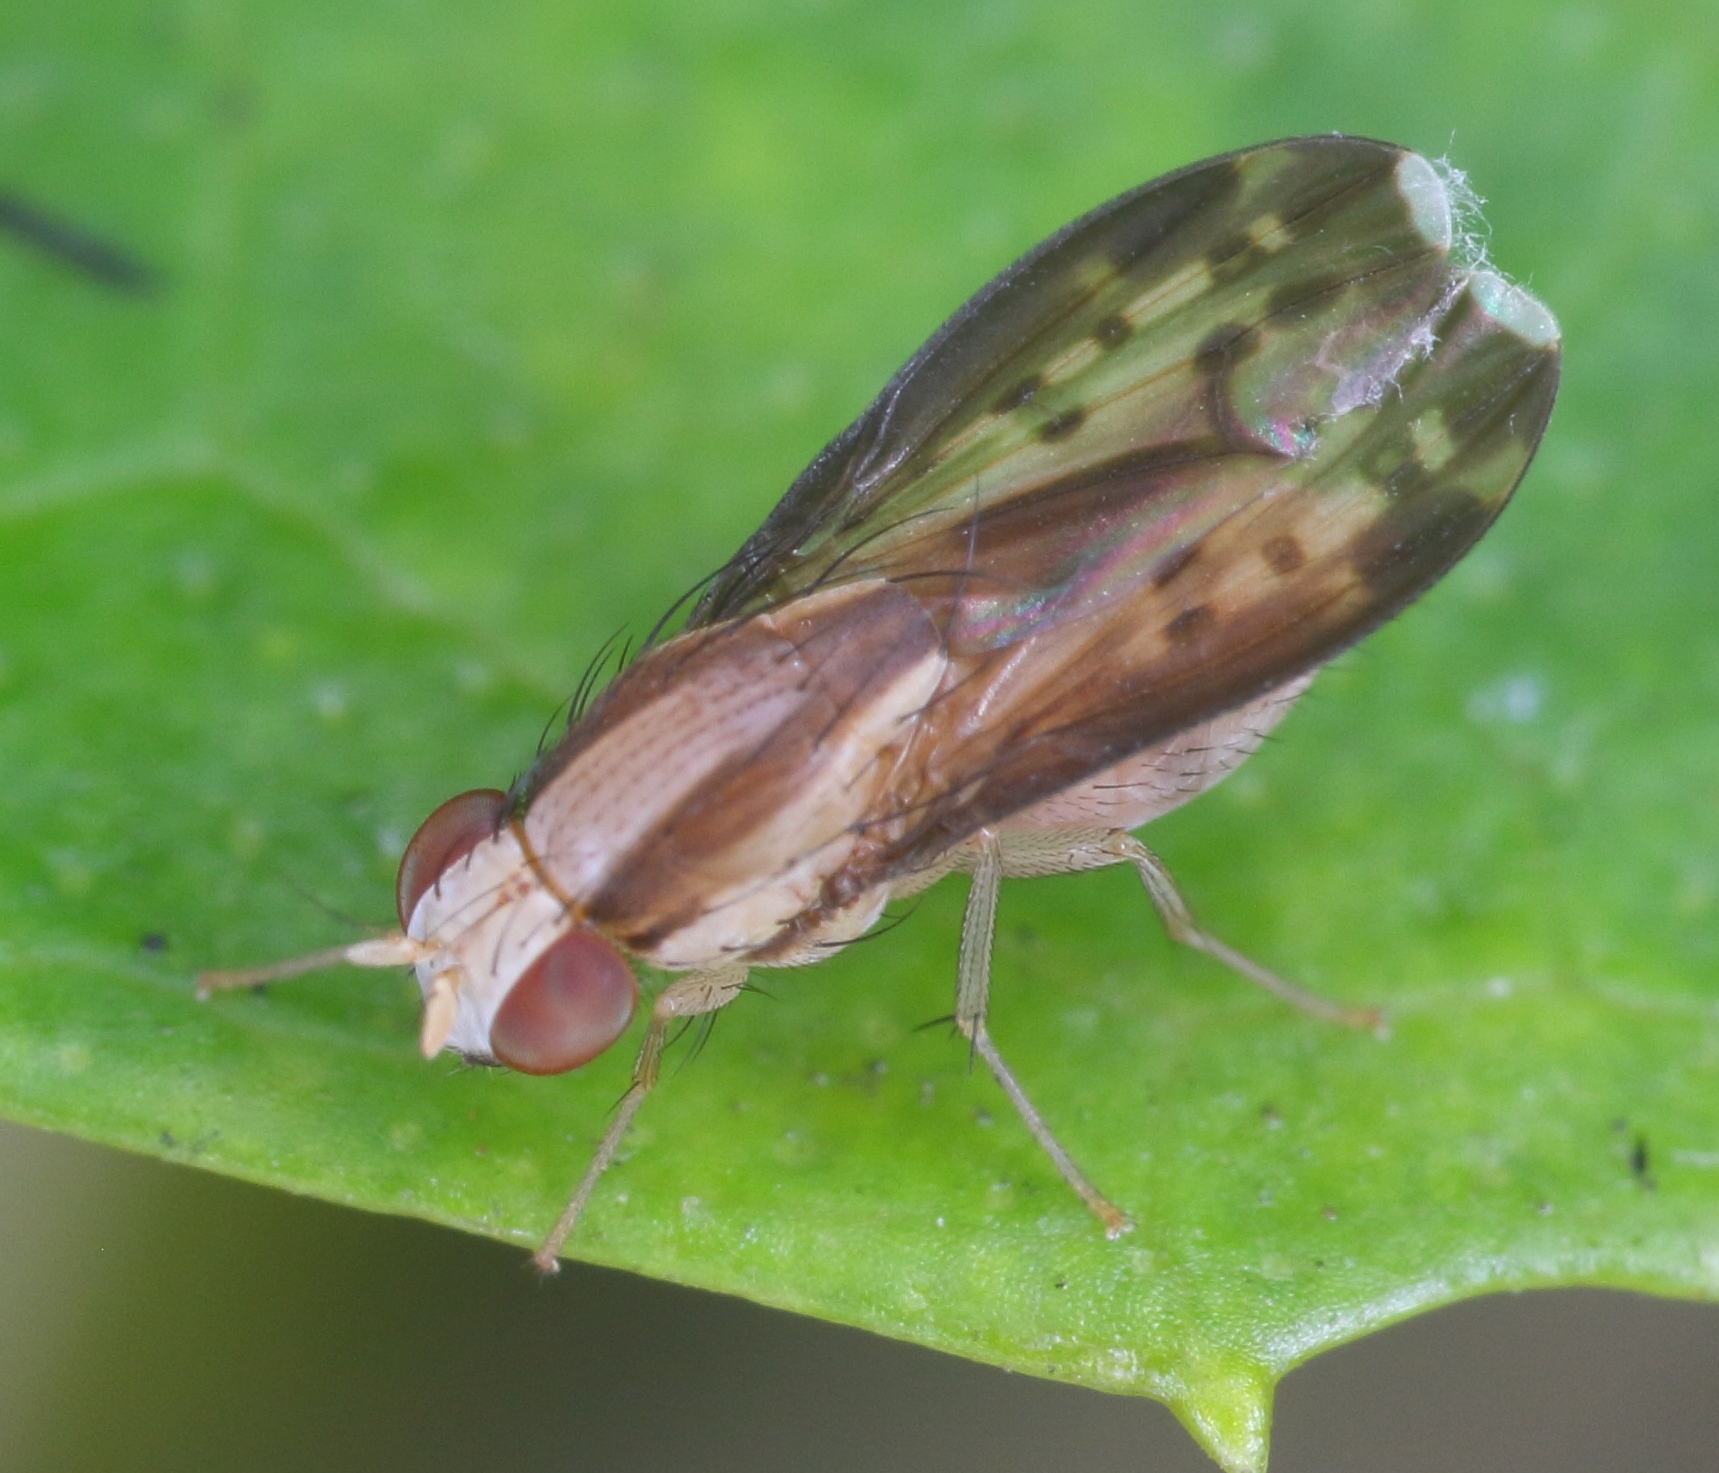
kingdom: Animalia
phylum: Arthropoda
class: Insecta
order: Diptera
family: Lauxaniidae
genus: Homoneura
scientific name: Homoneura terminalis
